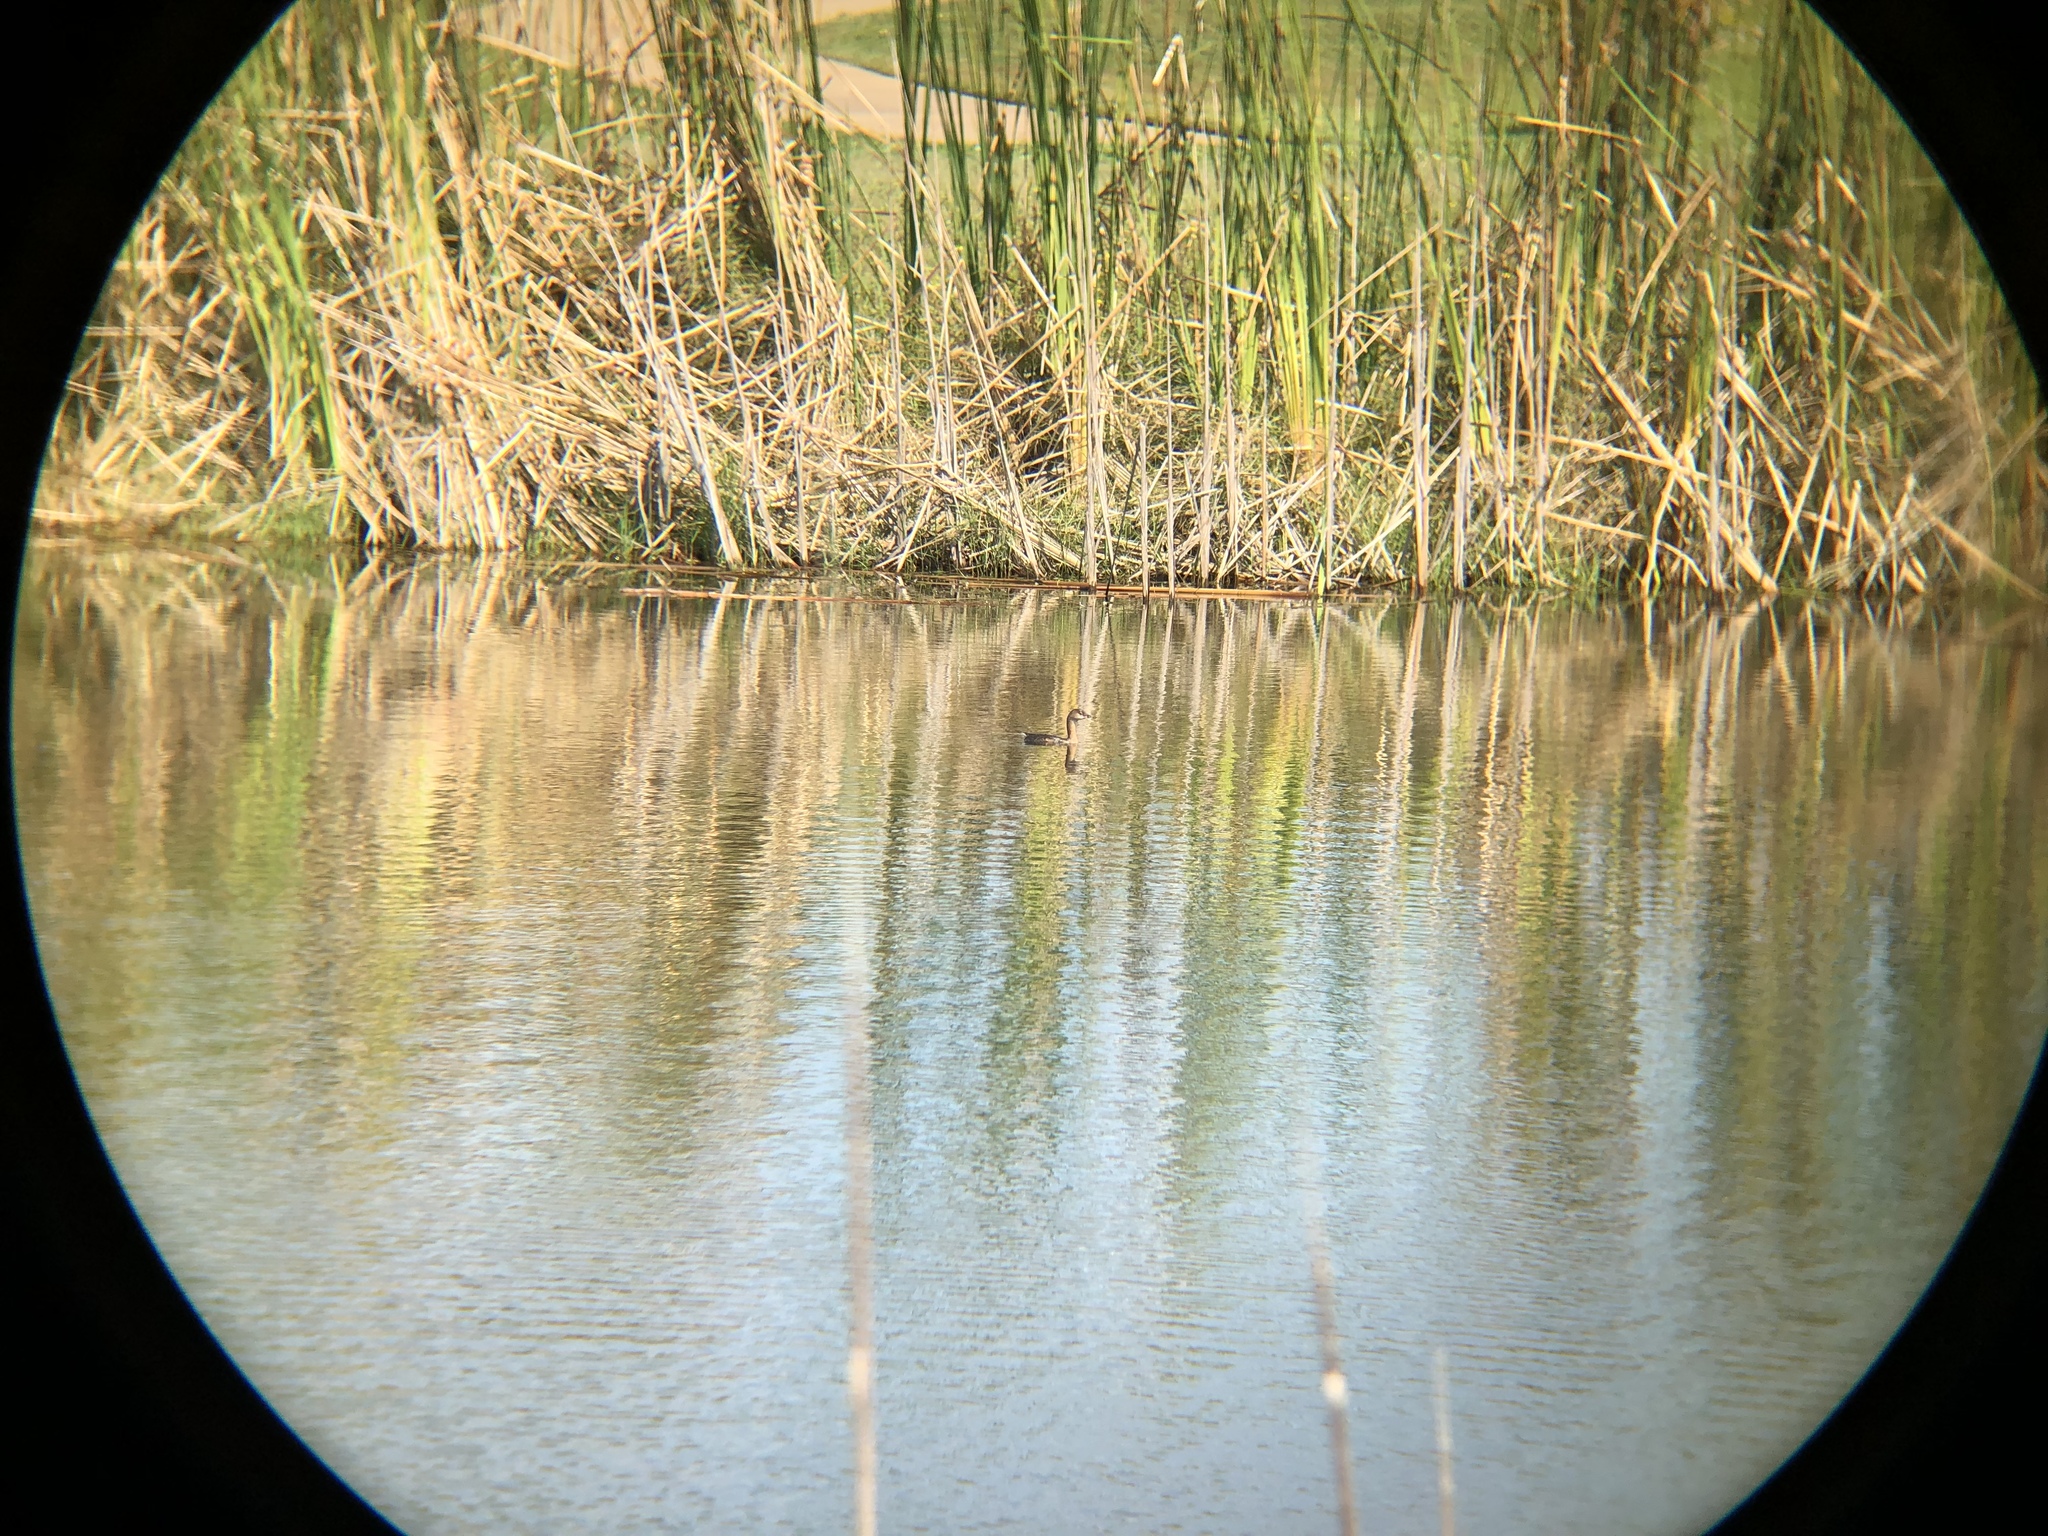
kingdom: Animalia
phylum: Chordata
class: Aves
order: Podicipediformes
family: Podicipedidae
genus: Podilymbus
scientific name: Podilymbus podiceps
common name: Pied-billed grebe
